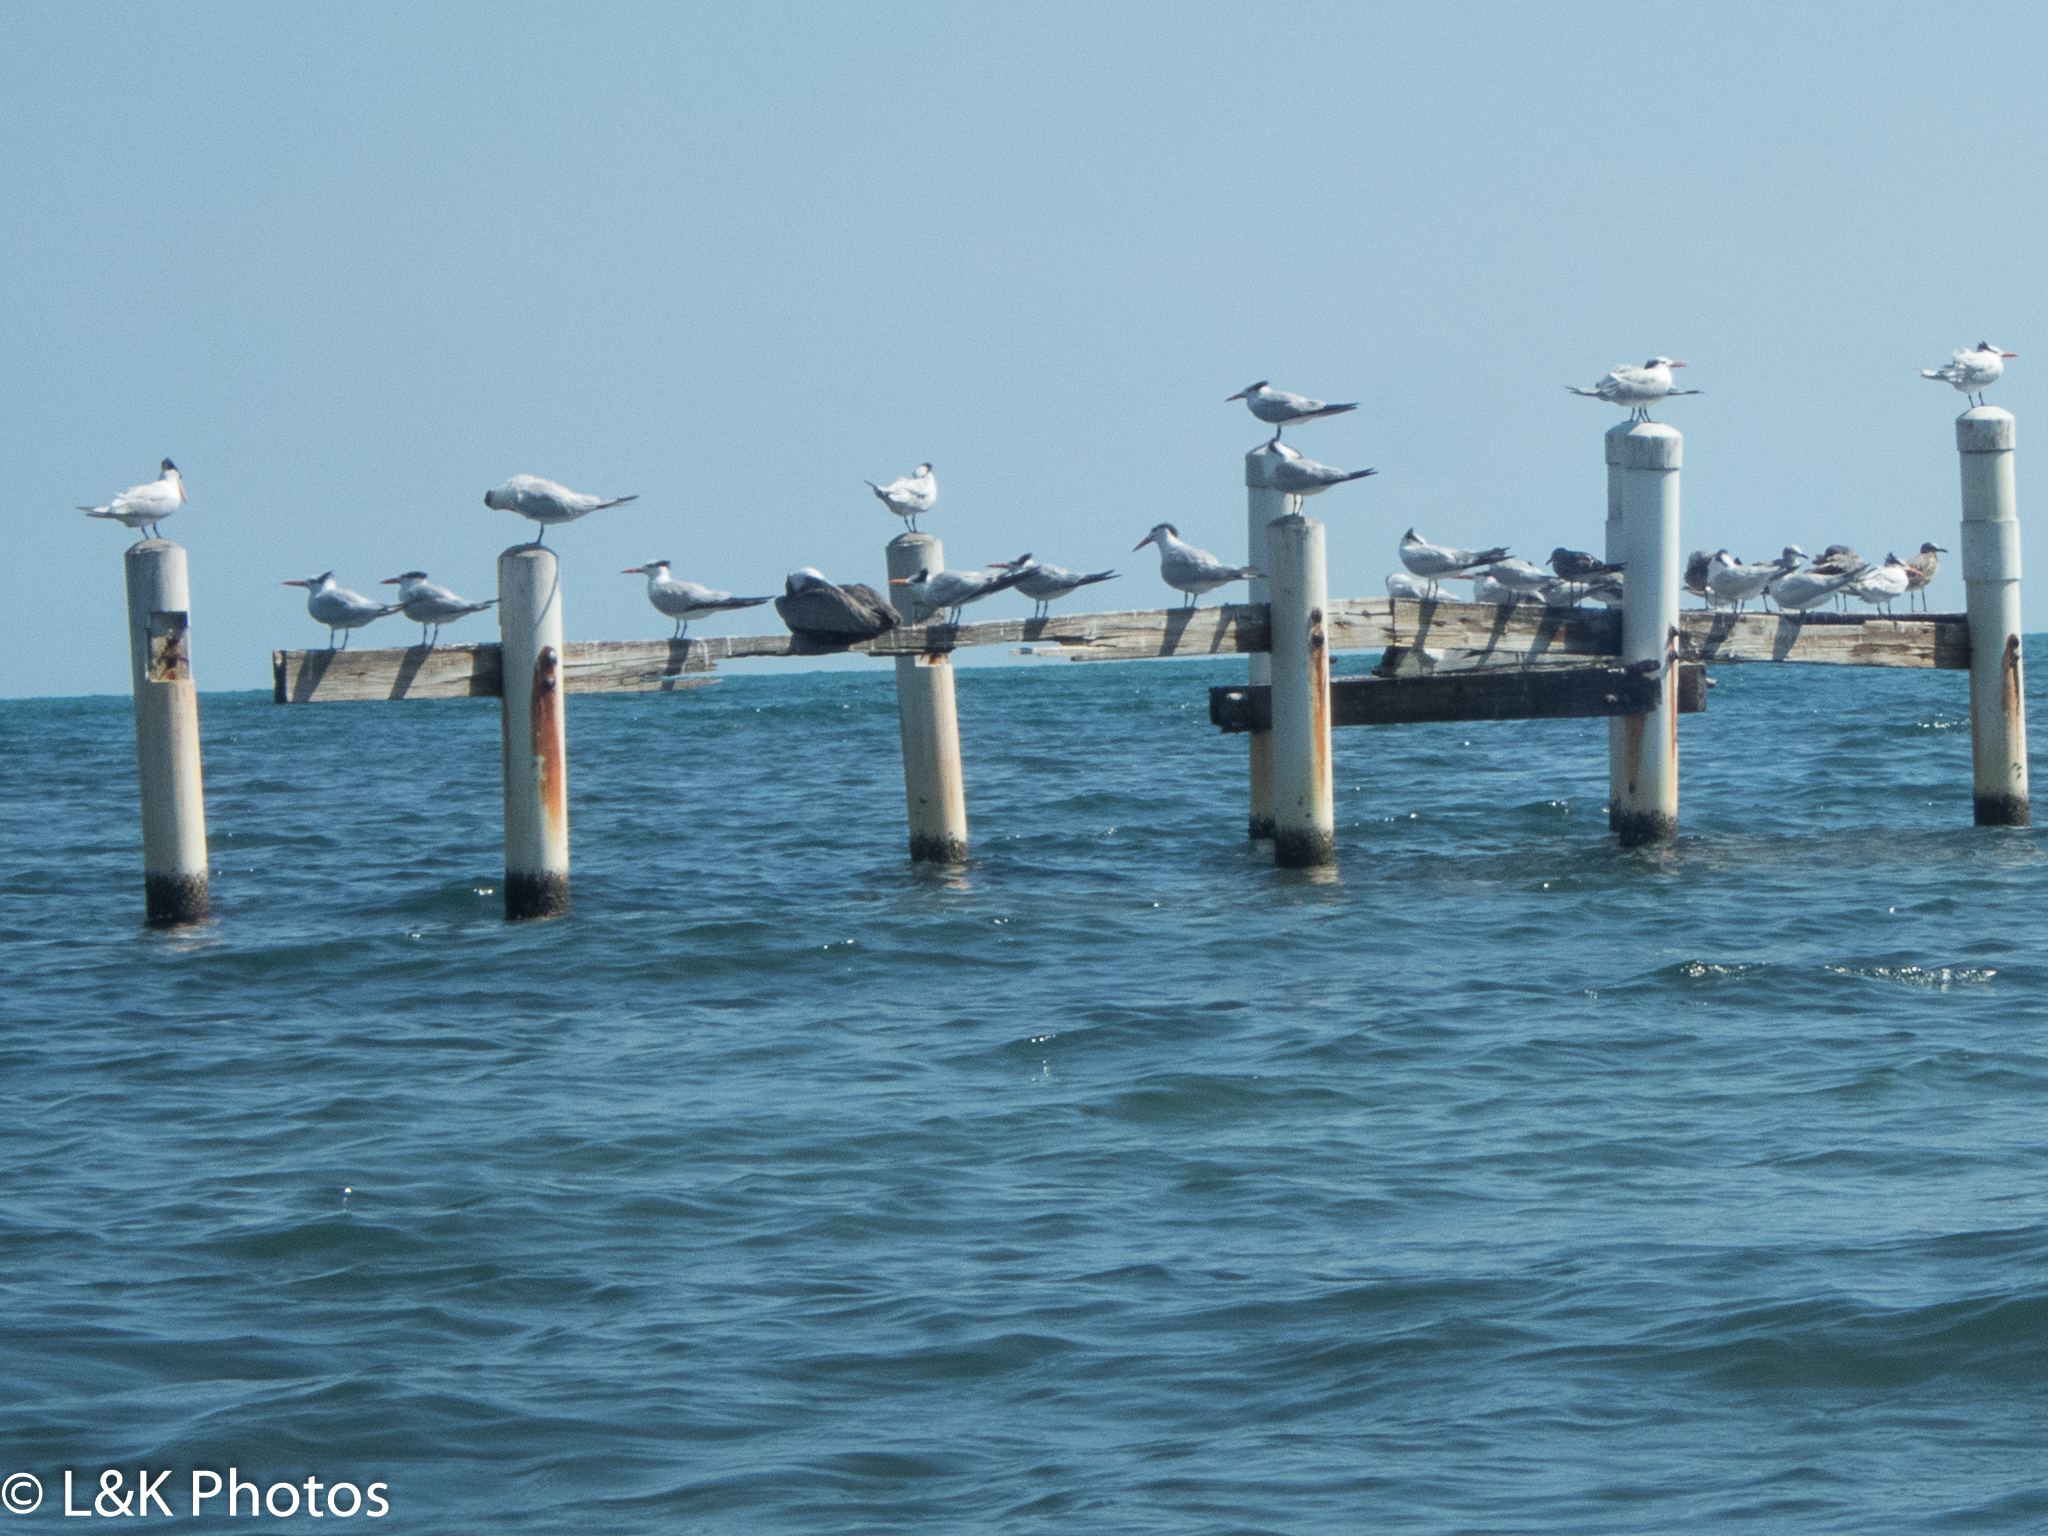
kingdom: Animalia
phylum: Chordata
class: Aves
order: Charadriiformes
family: Laridae
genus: Thalasseus
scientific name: Thalasseus maximus
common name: Royal tern
